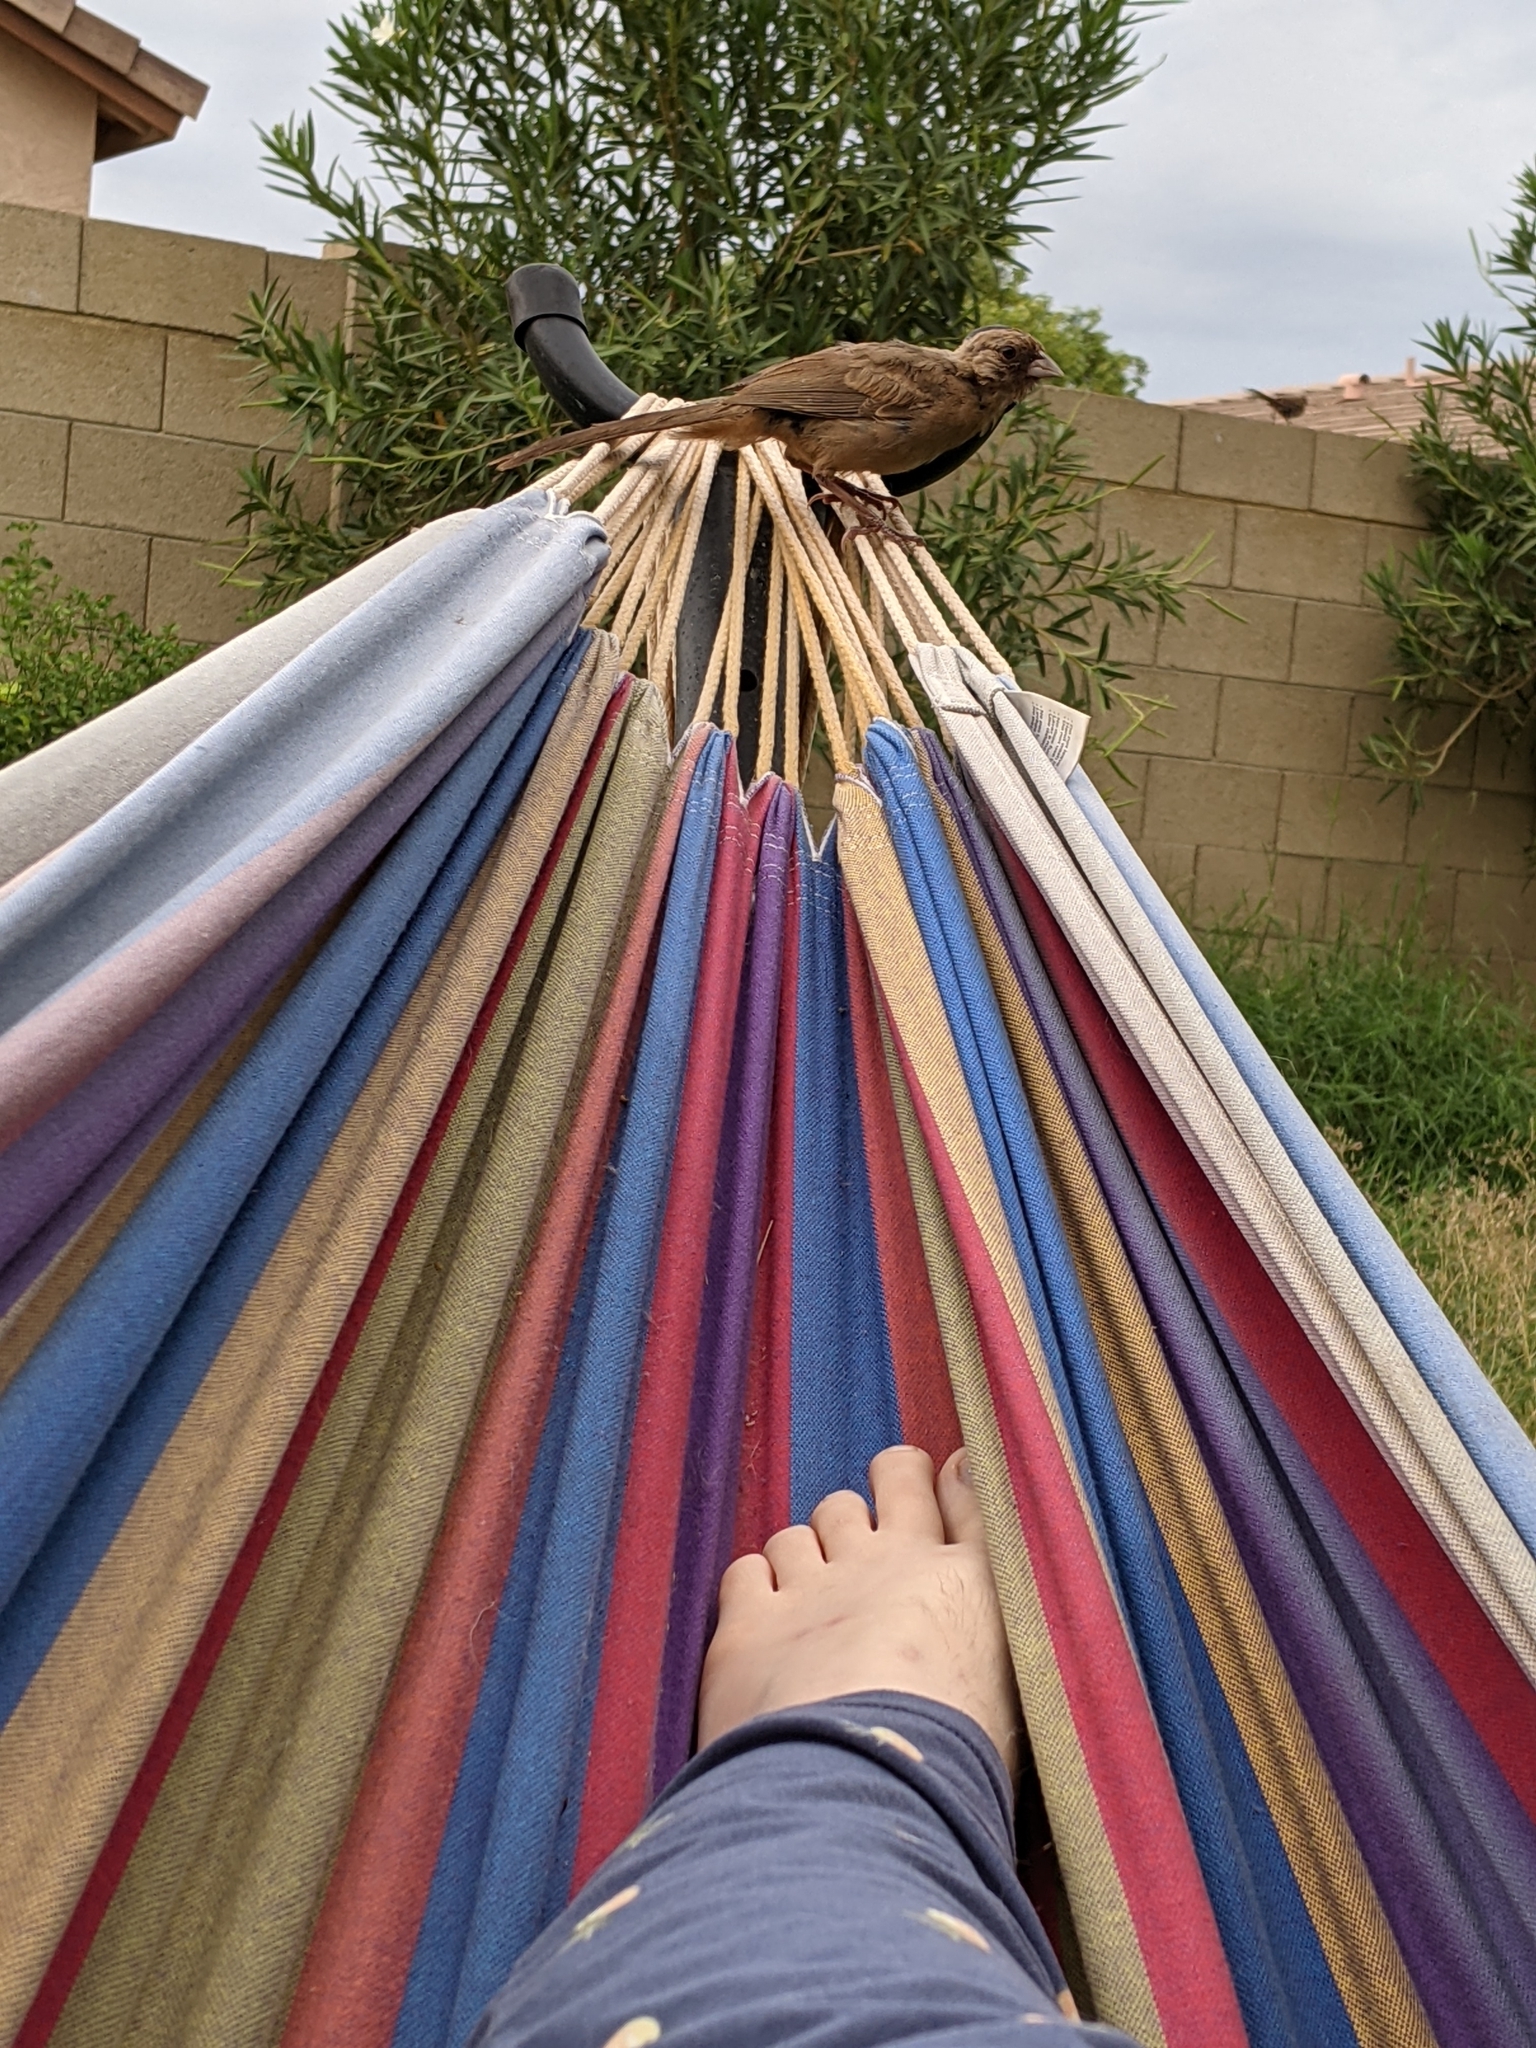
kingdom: Animalia
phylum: Chordata
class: Aves
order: Passeriformes
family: Passerellidae
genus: Melozone
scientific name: Melozone aberti
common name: Abert's towhee
